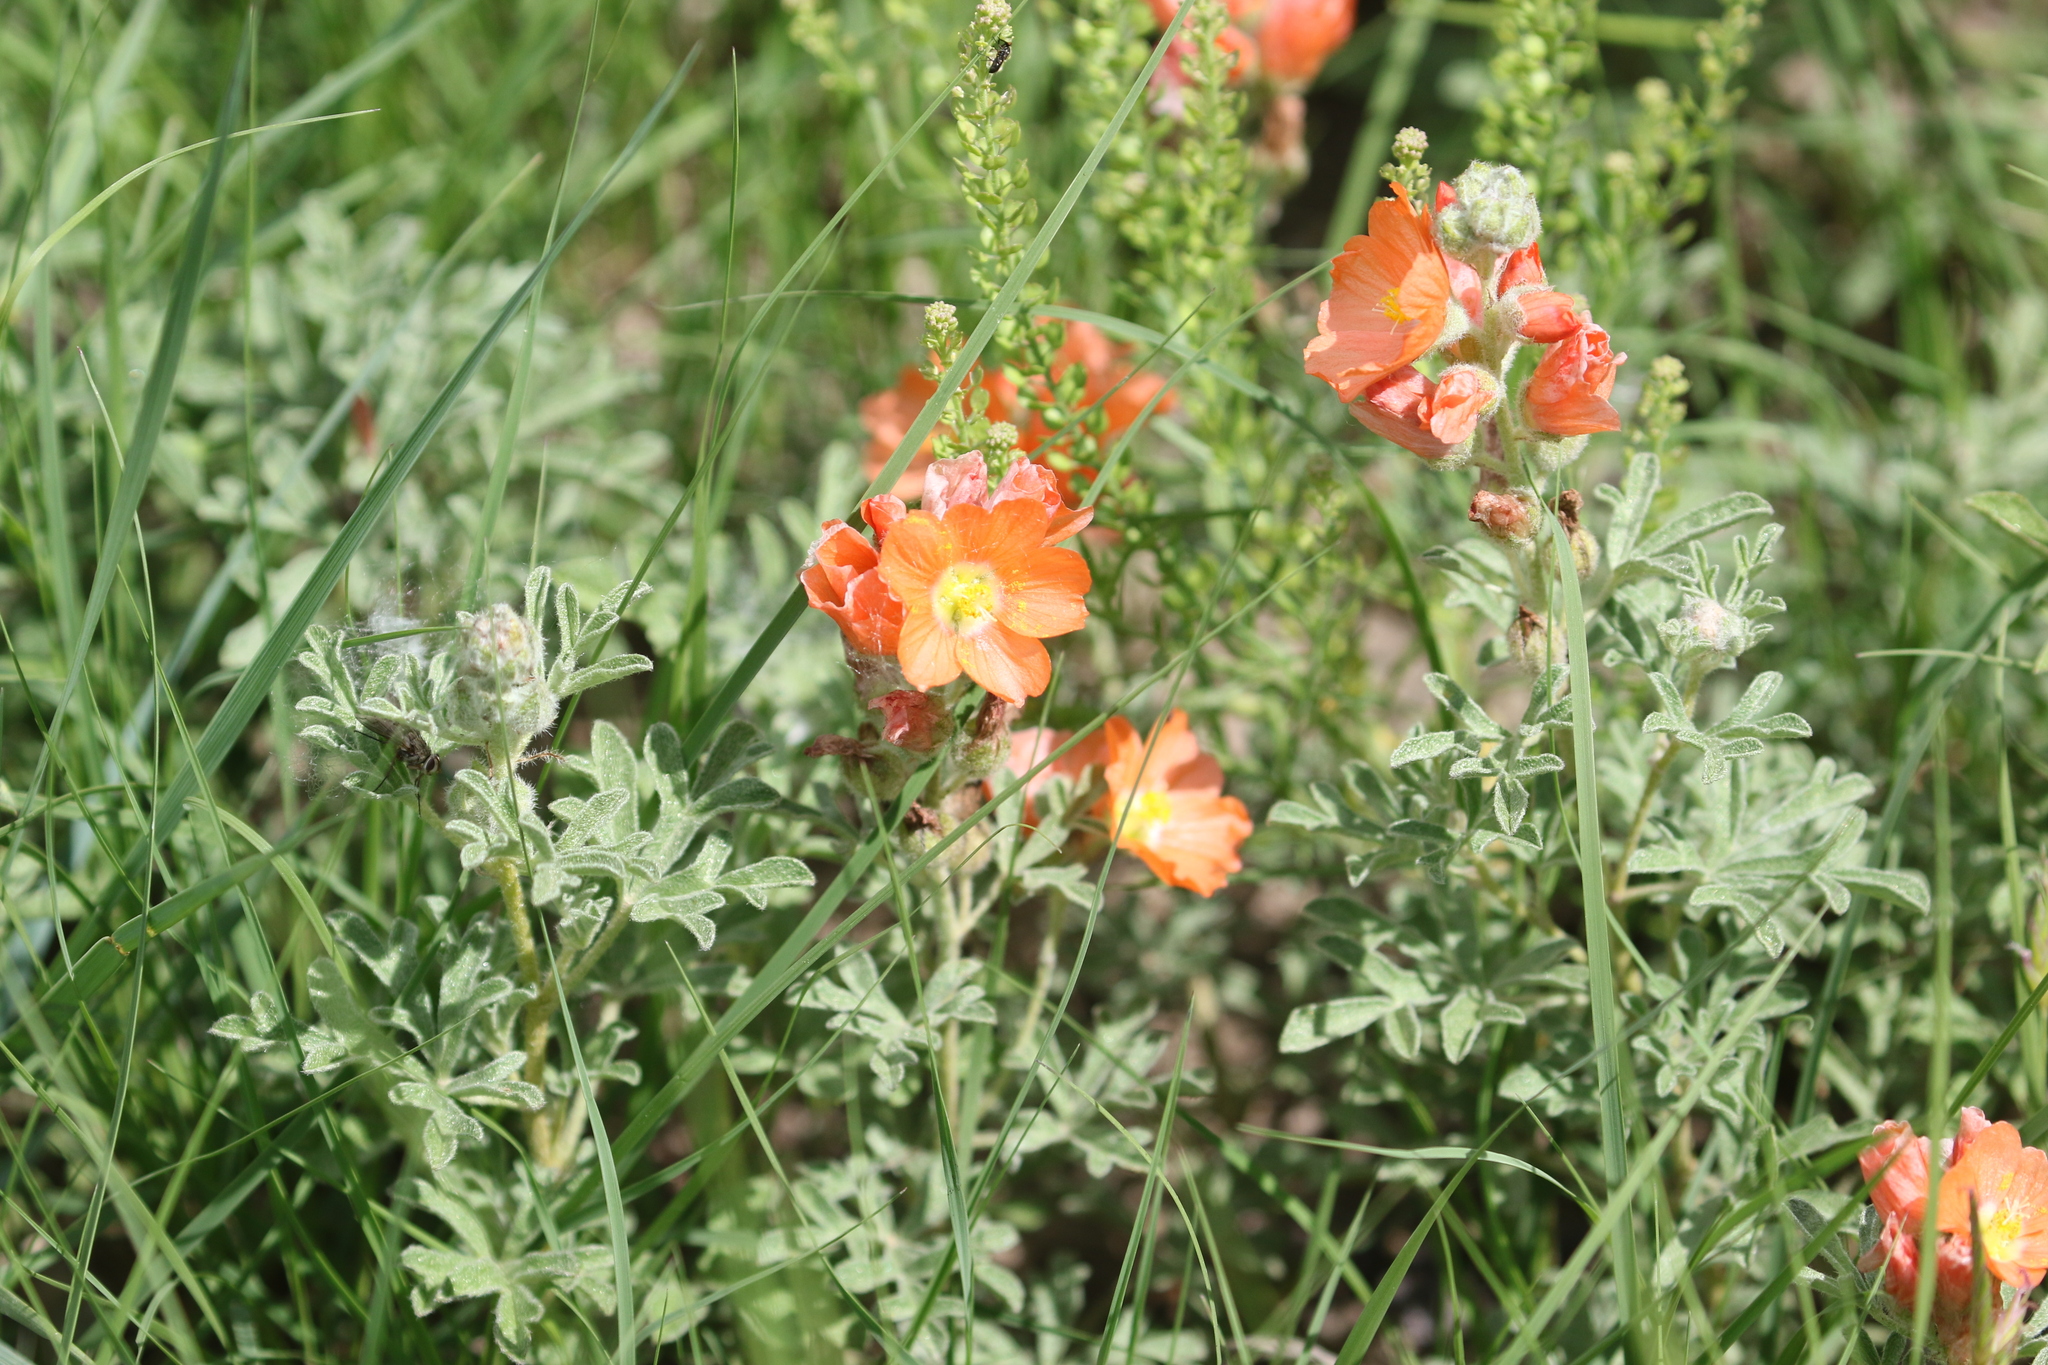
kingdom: Plantae
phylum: Tracheophyta
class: Magnoliopsida
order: Malvales
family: Malvaceae
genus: Sphaeralcea
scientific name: Sphaeralcea coccinea
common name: Moss-rose
